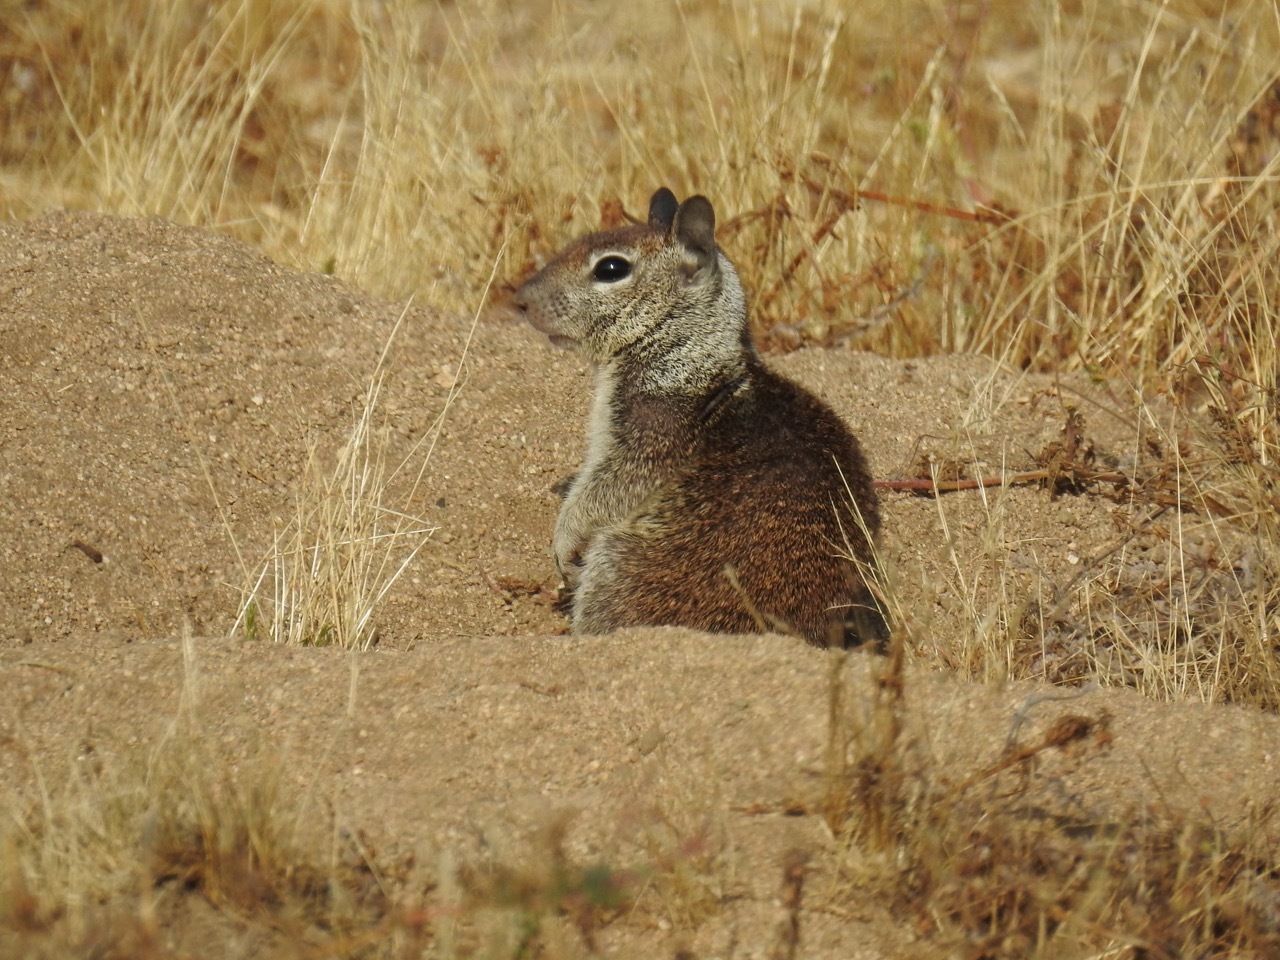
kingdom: Animalia
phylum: Chordata
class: Mammalia
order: Rodentia
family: Sciuridae
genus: Otospermophilus
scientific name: Otospermophilus beecheyi
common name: California ground squirrel
